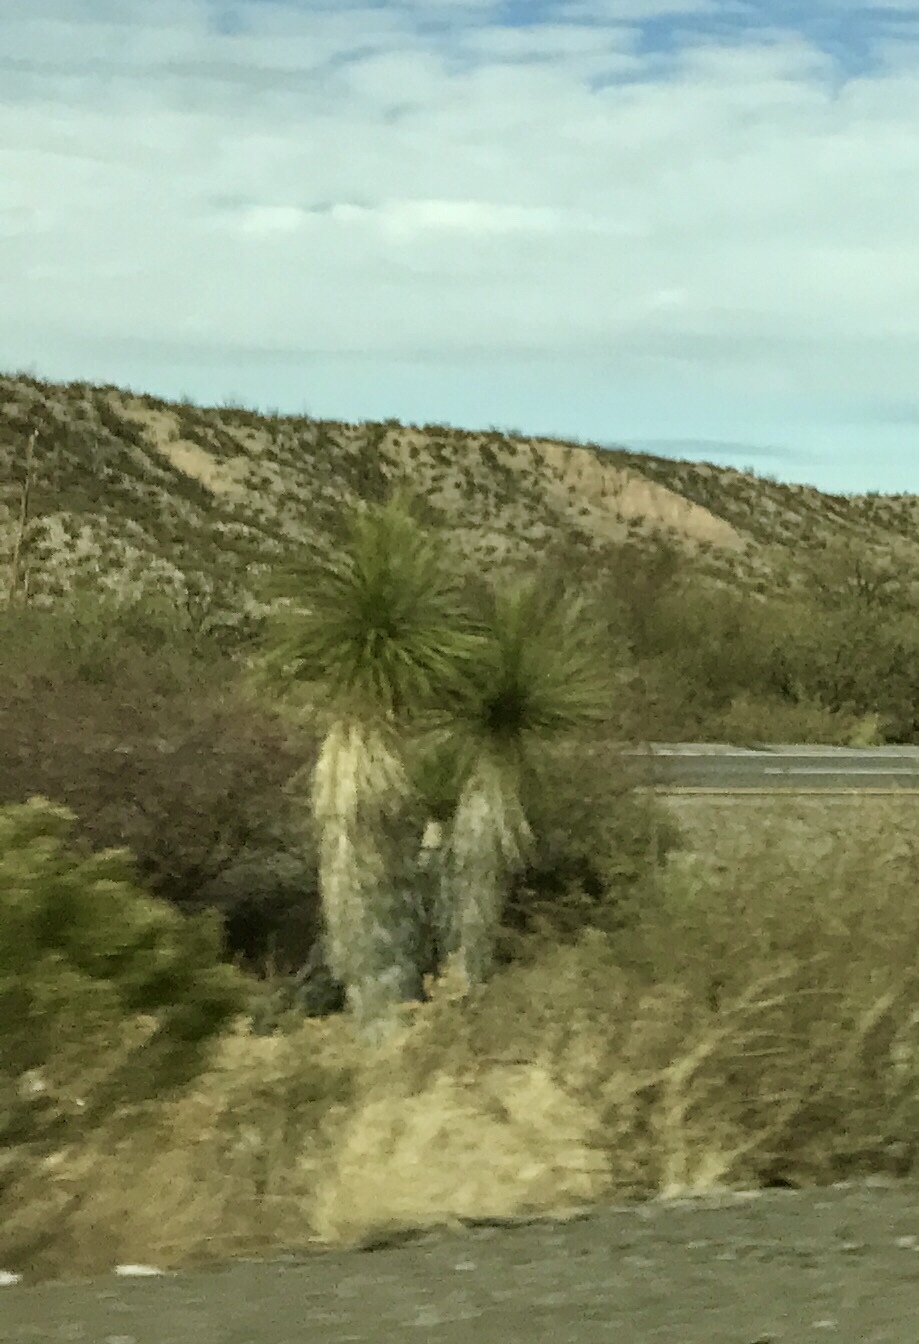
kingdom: Plantae
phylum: Tracheophyta
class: Liliopsida
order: Asparagales
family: Asparagaceae
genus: Yucca
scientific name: Yucca elata
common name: Palmella
